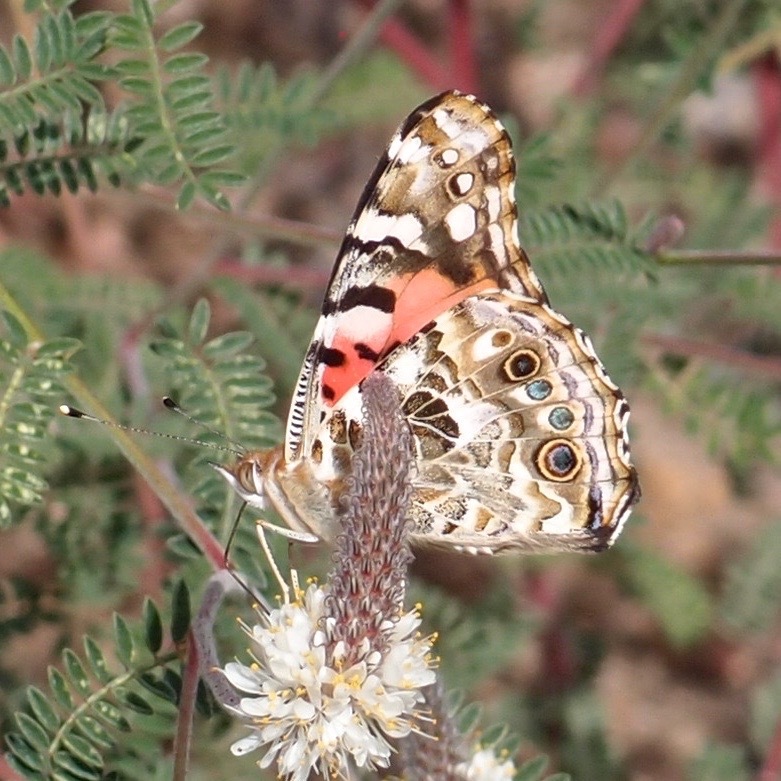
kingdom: Animalia
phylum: Arthropoda
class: Insecta
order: Lepidoptera
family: Nymphalidae
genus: Vanessa
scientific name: Vanessa cardui
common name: Painted lady
